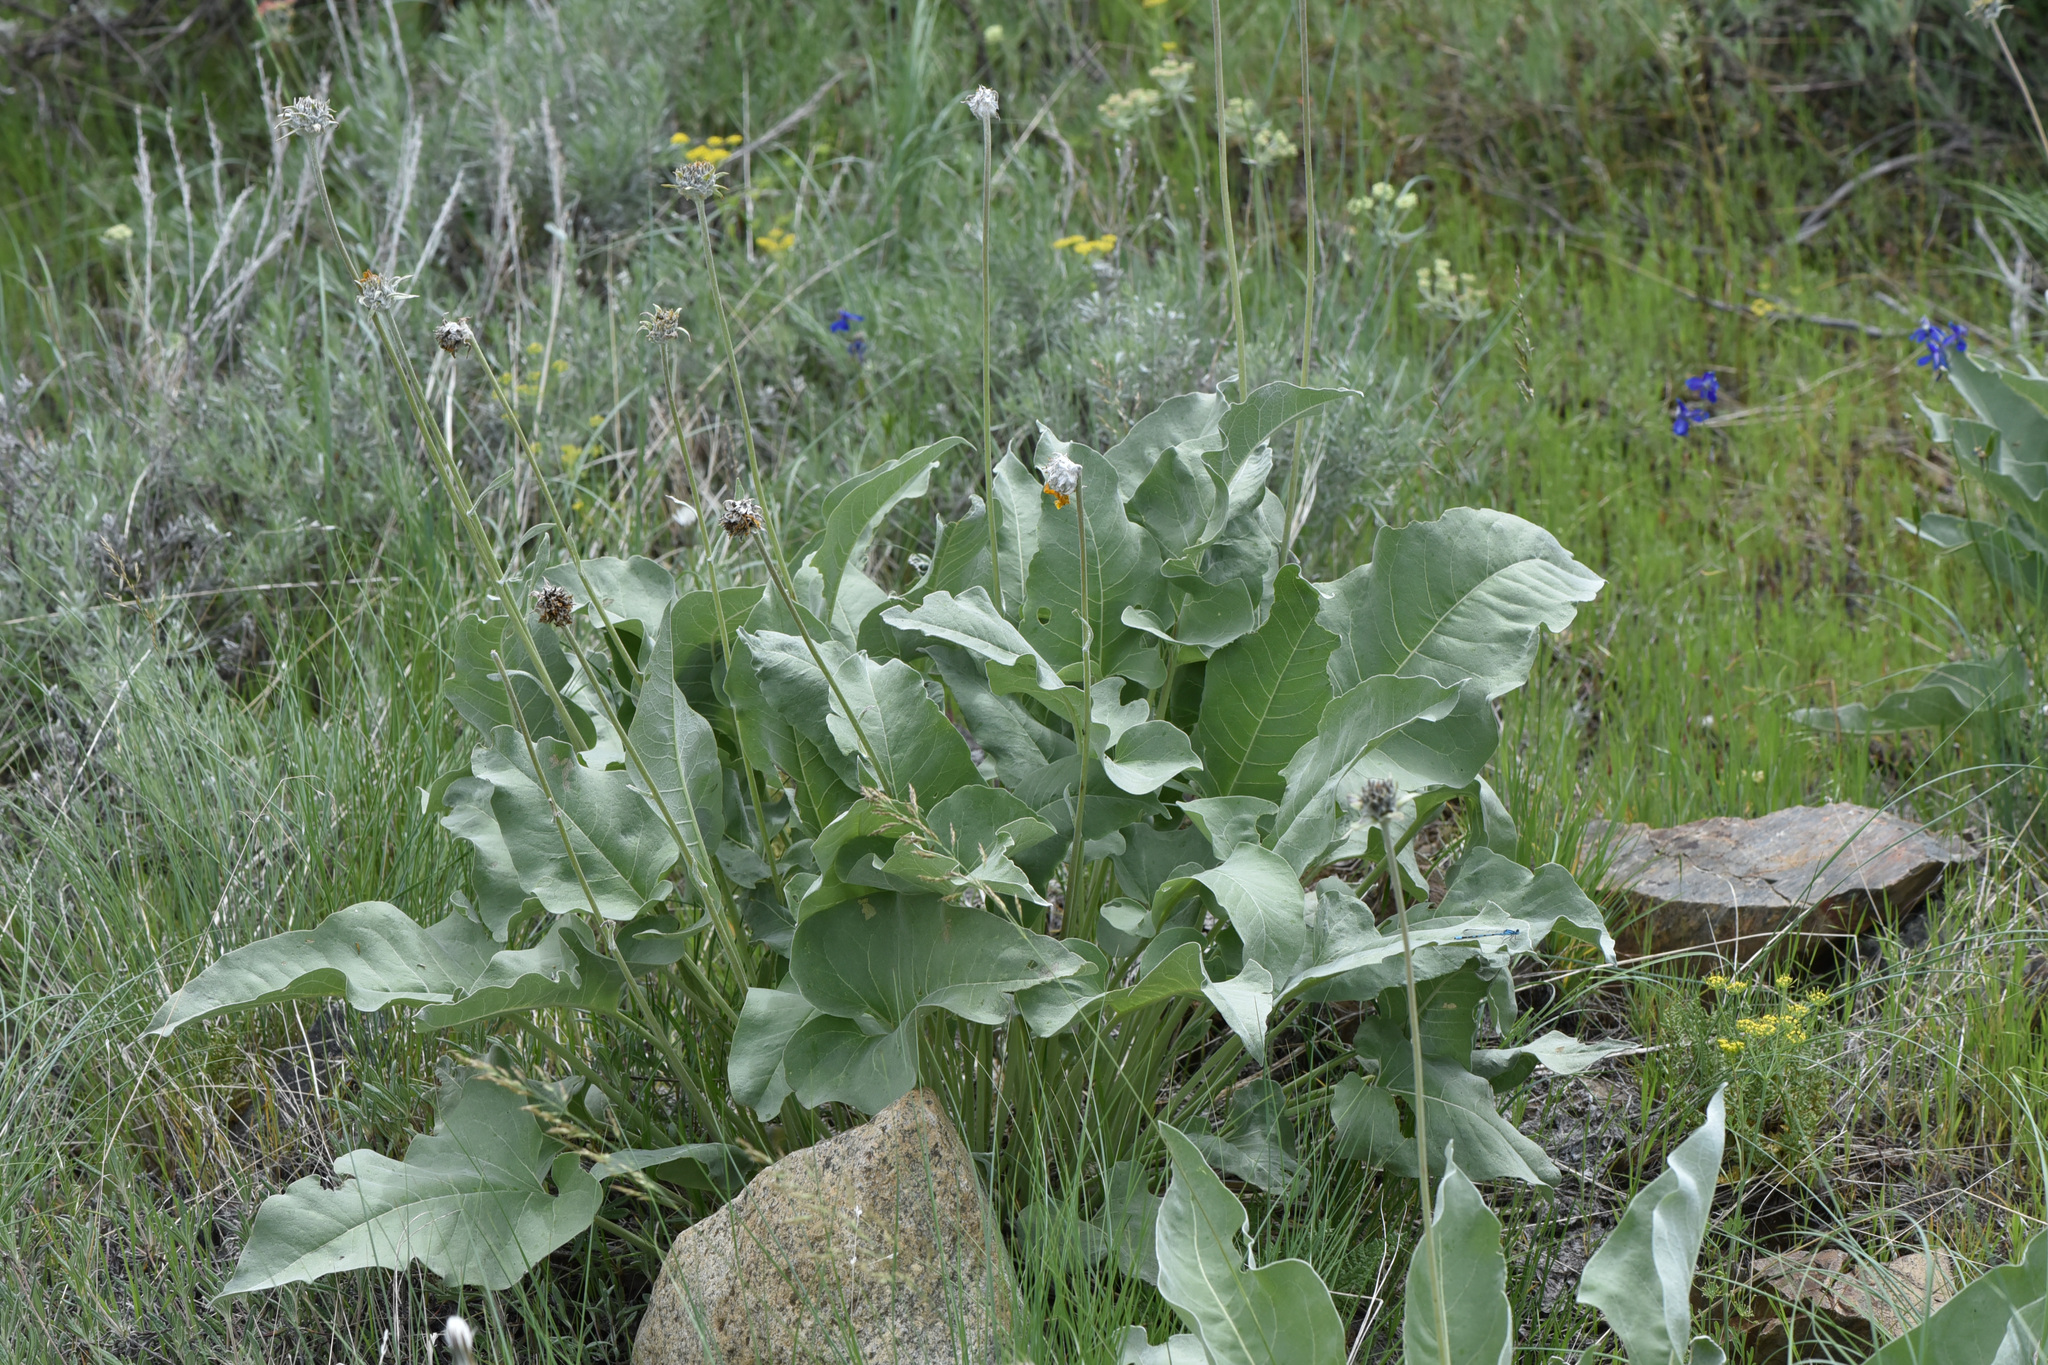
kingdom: Plantae
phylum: Tracheophyta
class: Magnoliopsida
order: Asterales
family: Asteraceae
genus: Wyethia
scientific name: Wyethia sagittata
